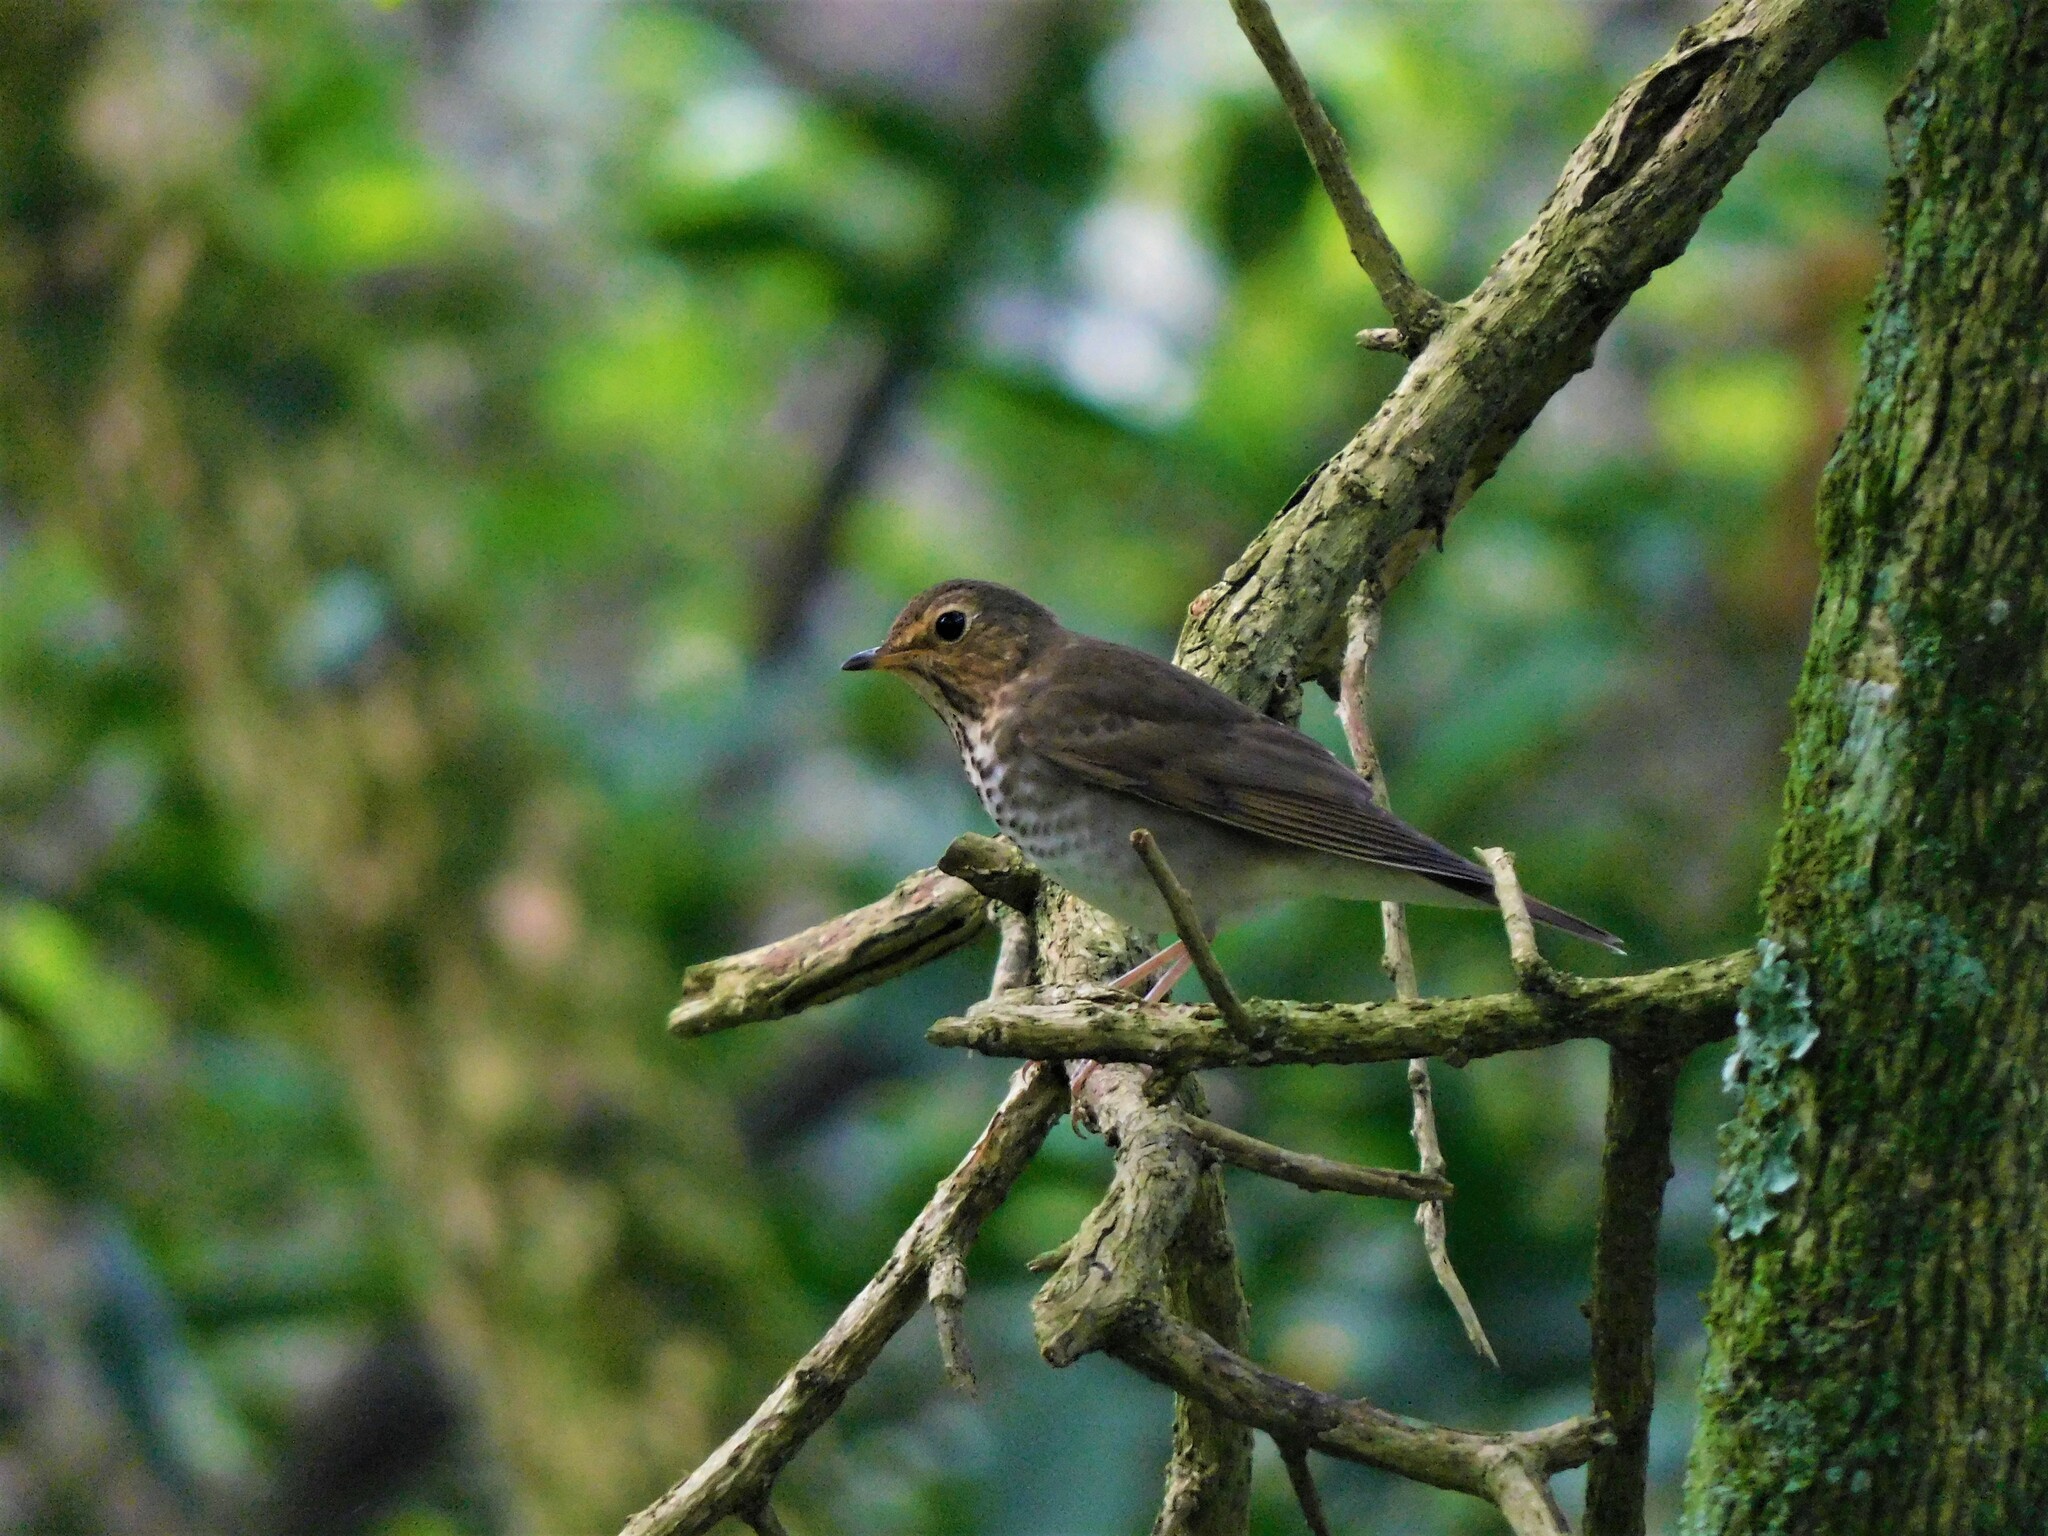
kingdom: Animalia
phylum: Chordata
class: Aves
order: Passeriformes
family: Turdidae
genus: Catharus
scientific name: Catharus ustulatus
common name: Swainson's thrush
